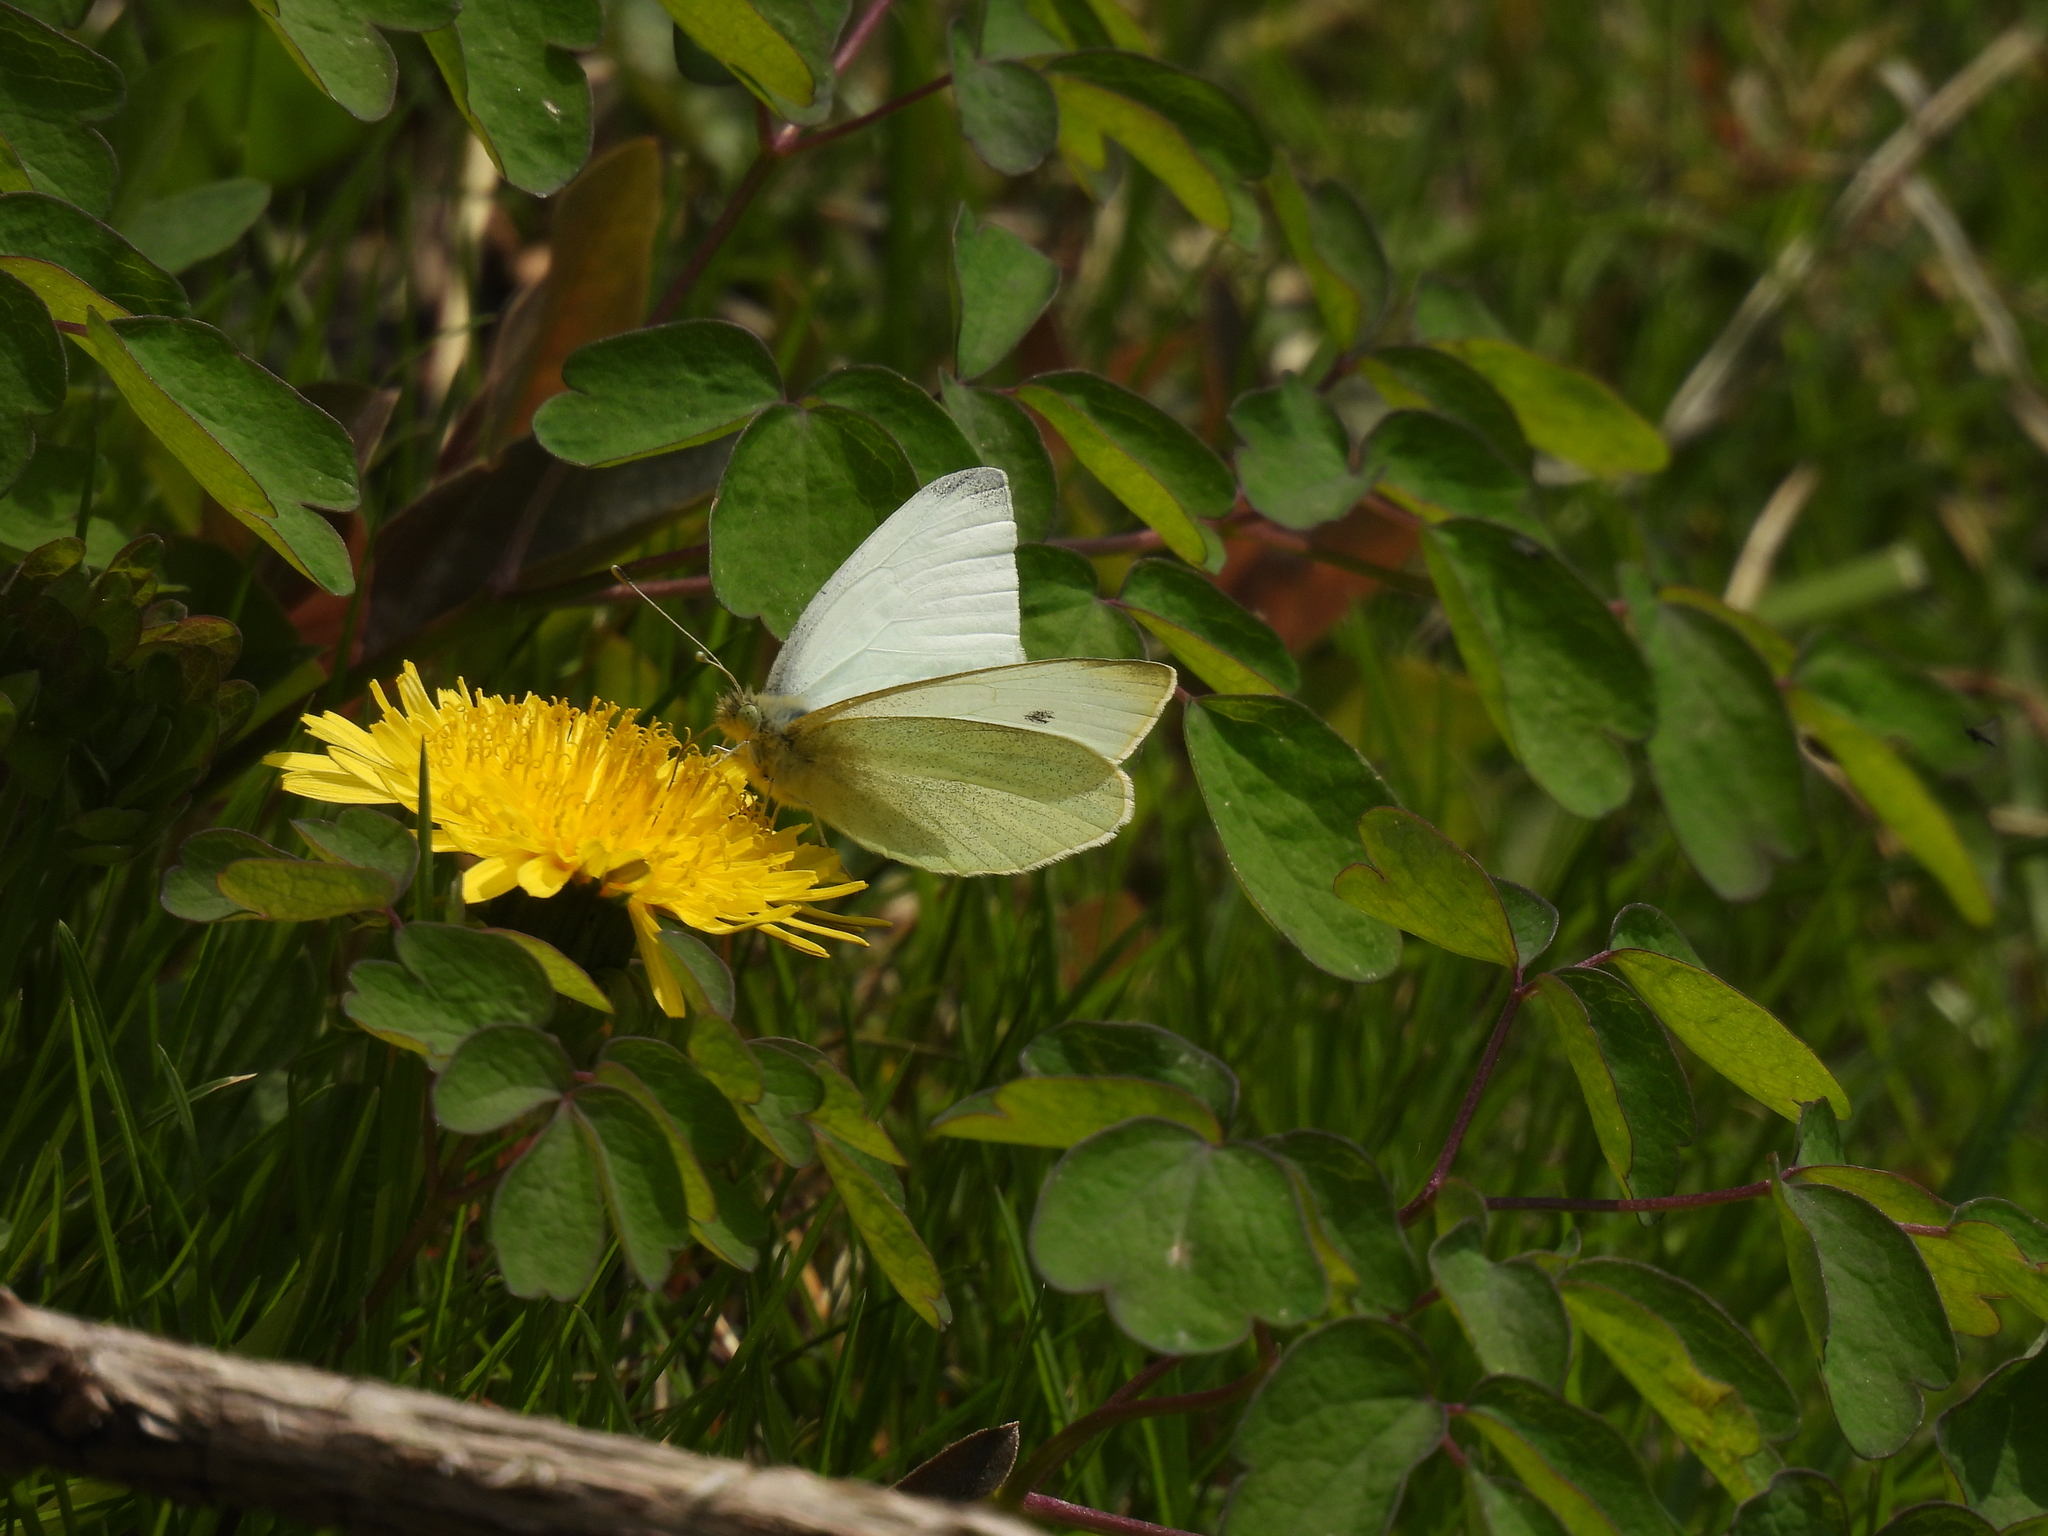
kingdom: Animalia
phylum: Arthropoda
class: Insecta
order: Lepidoptera
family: Pieridae
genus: Pieris
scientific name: Pieris rapae
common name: Small white
